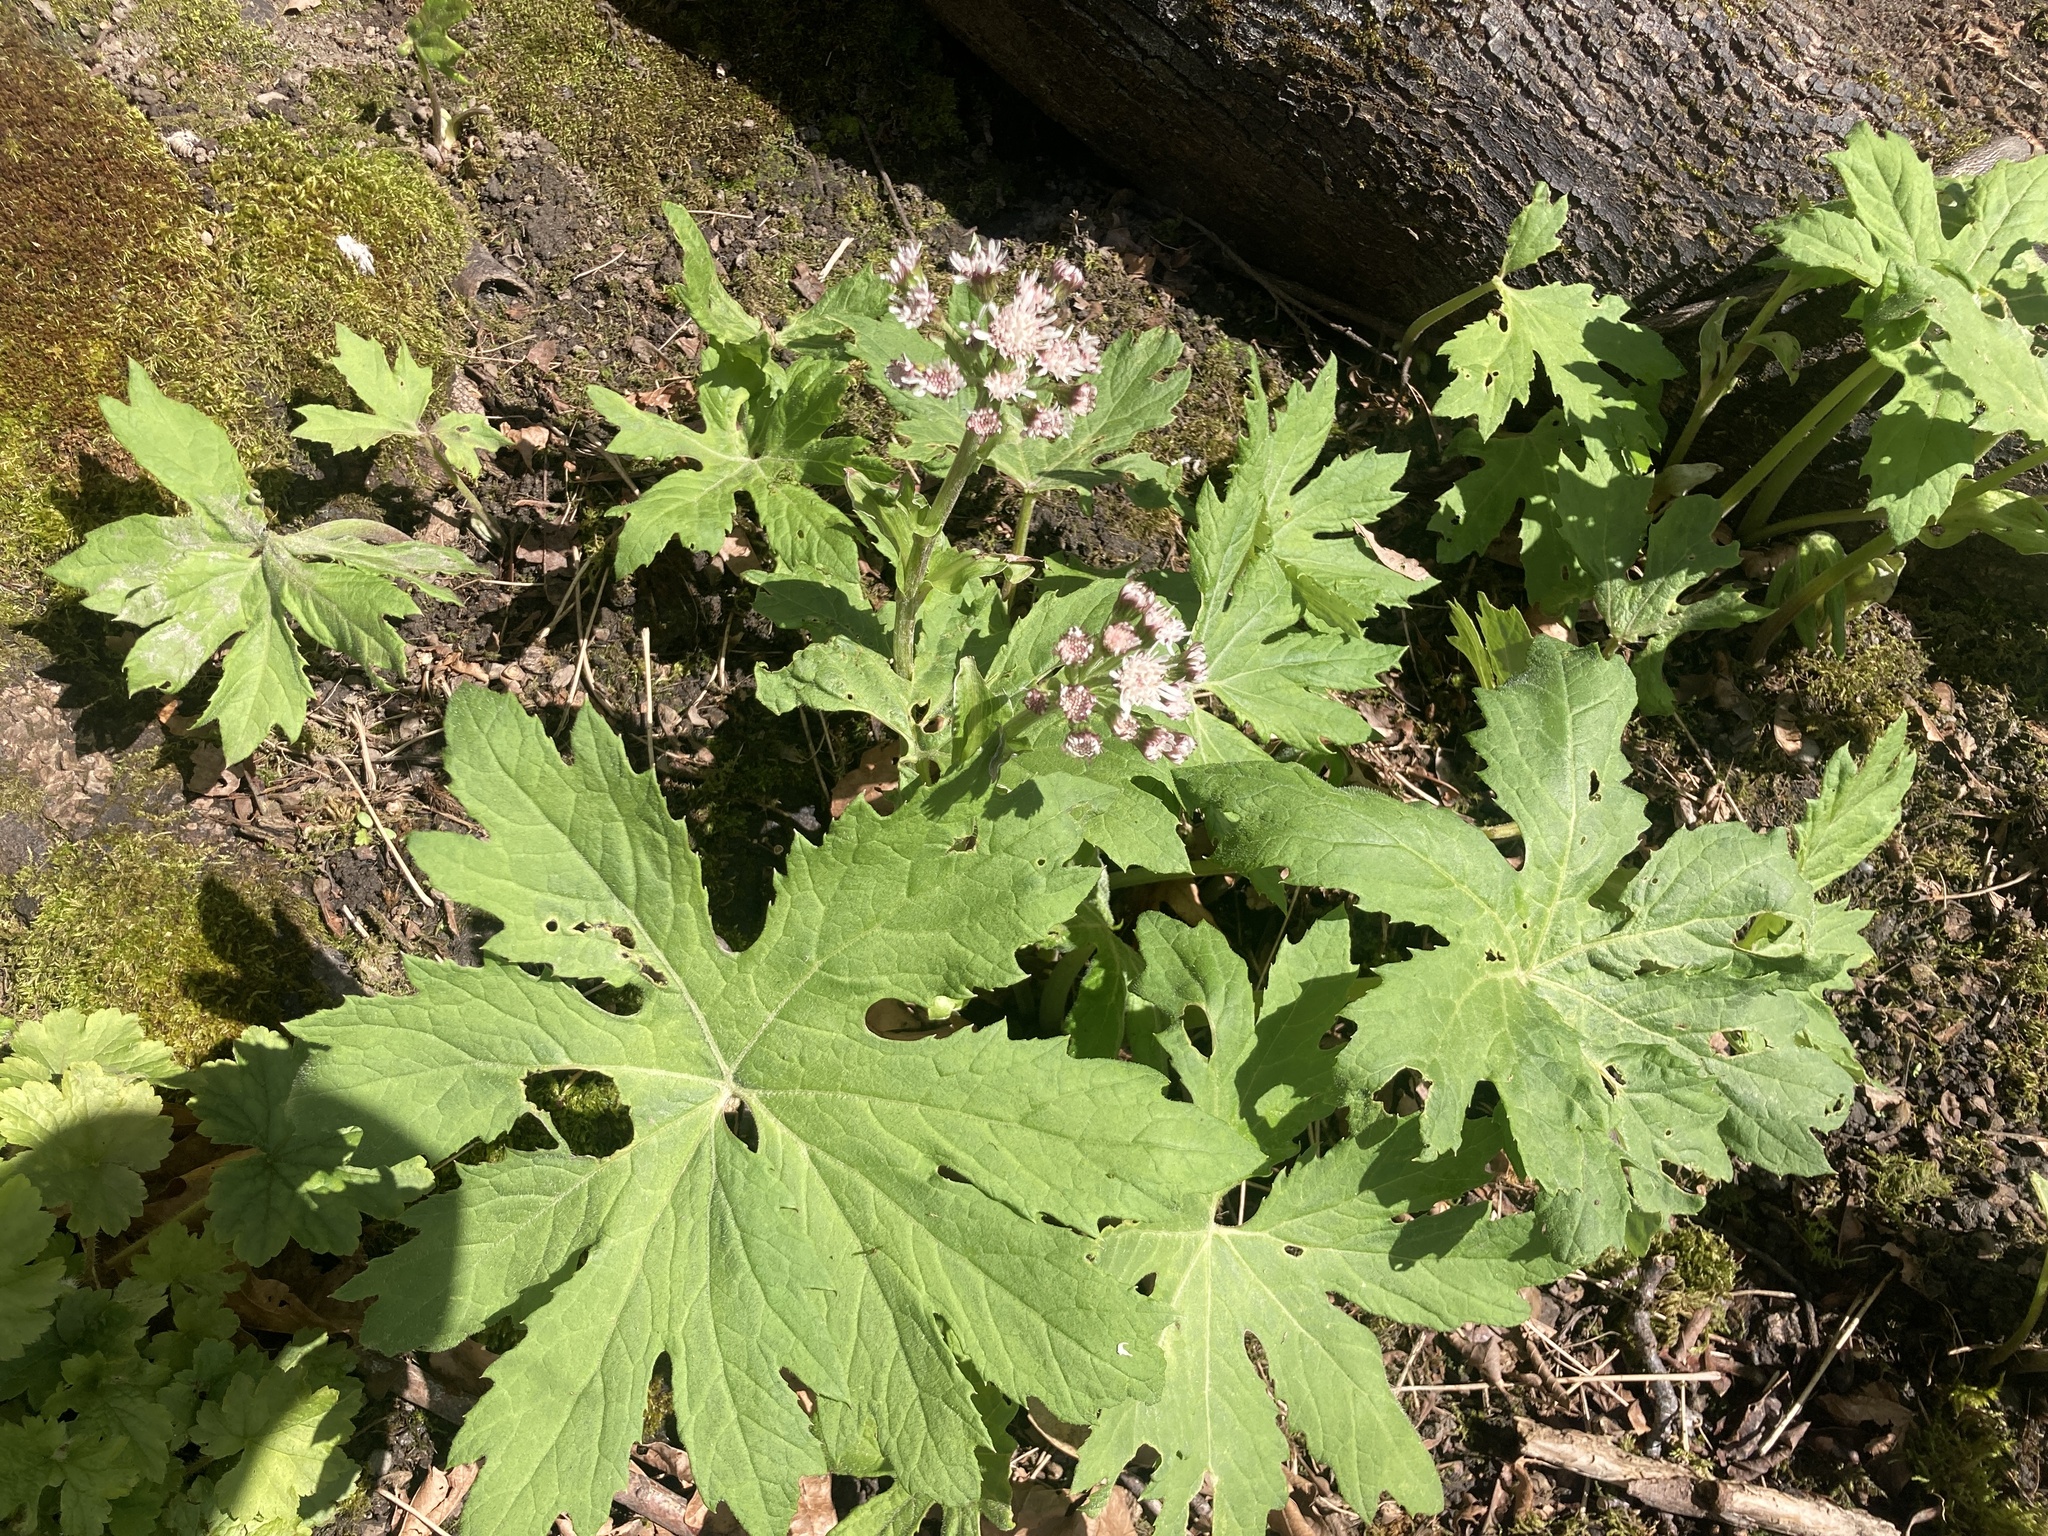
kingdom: Plantae
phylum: Tracheophyta
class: Magnoliopsida
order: Asterales
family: Asteraceae
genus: Petasites
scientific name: Petasites frigidus
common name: Arctic butterbur
